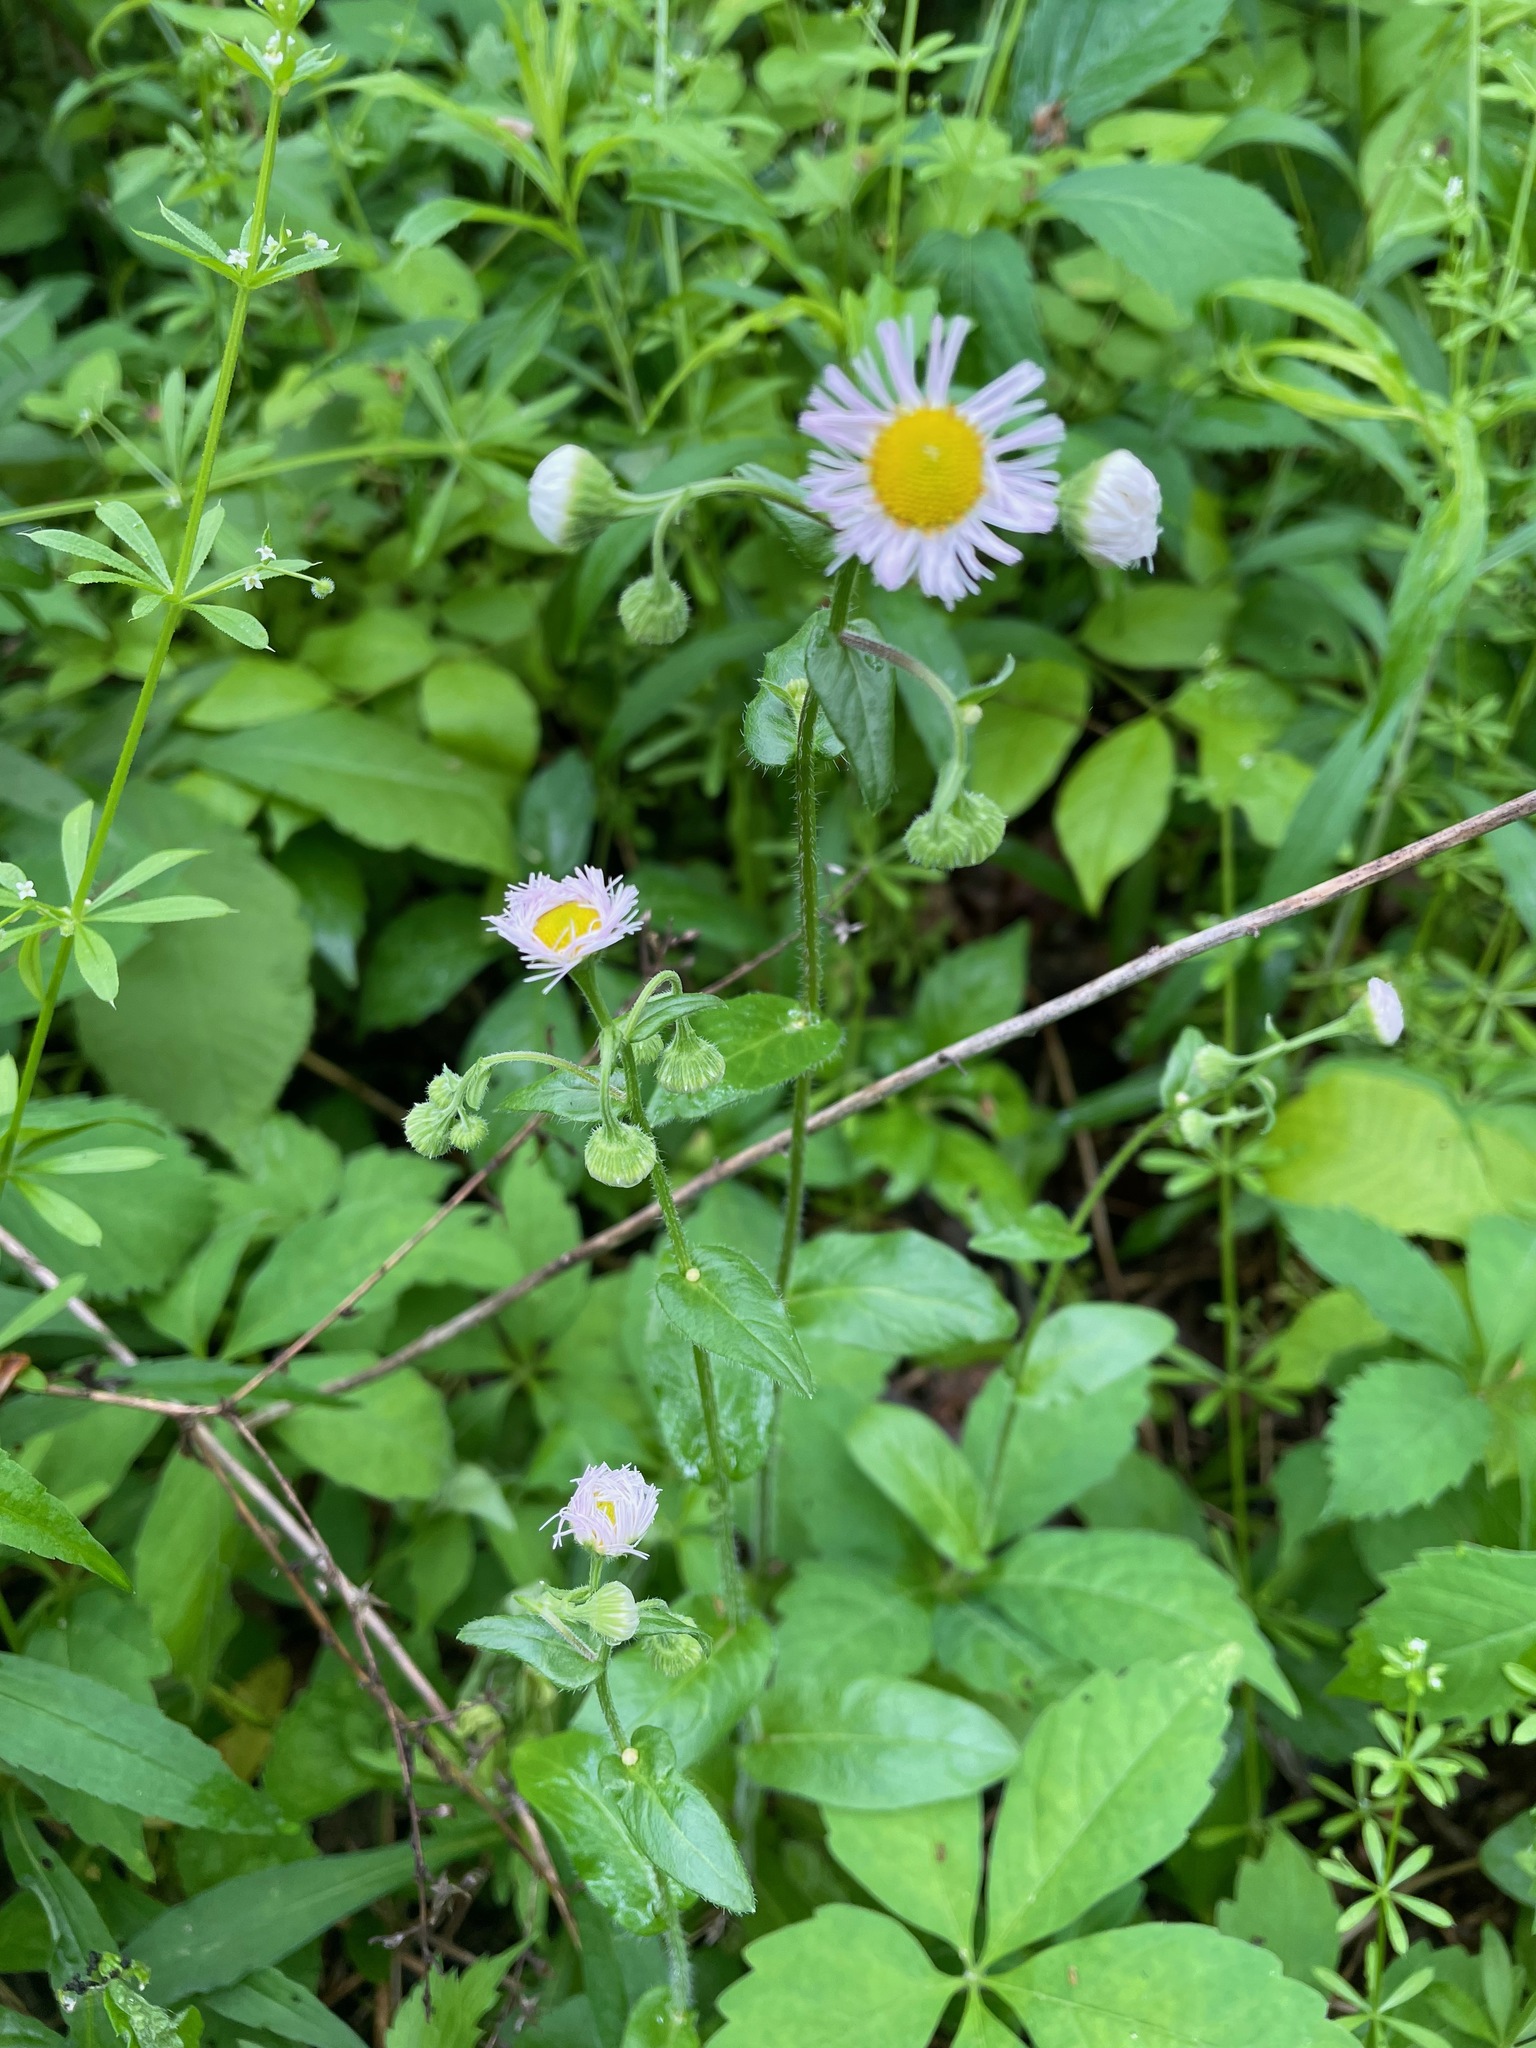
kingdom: Plantae
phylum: Tracheophyta
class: Magnoliopsida
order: Asterales
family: Asteraceae
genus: Erigeron
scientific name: Erigeron philadelphicus
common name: Robin's-plantain
